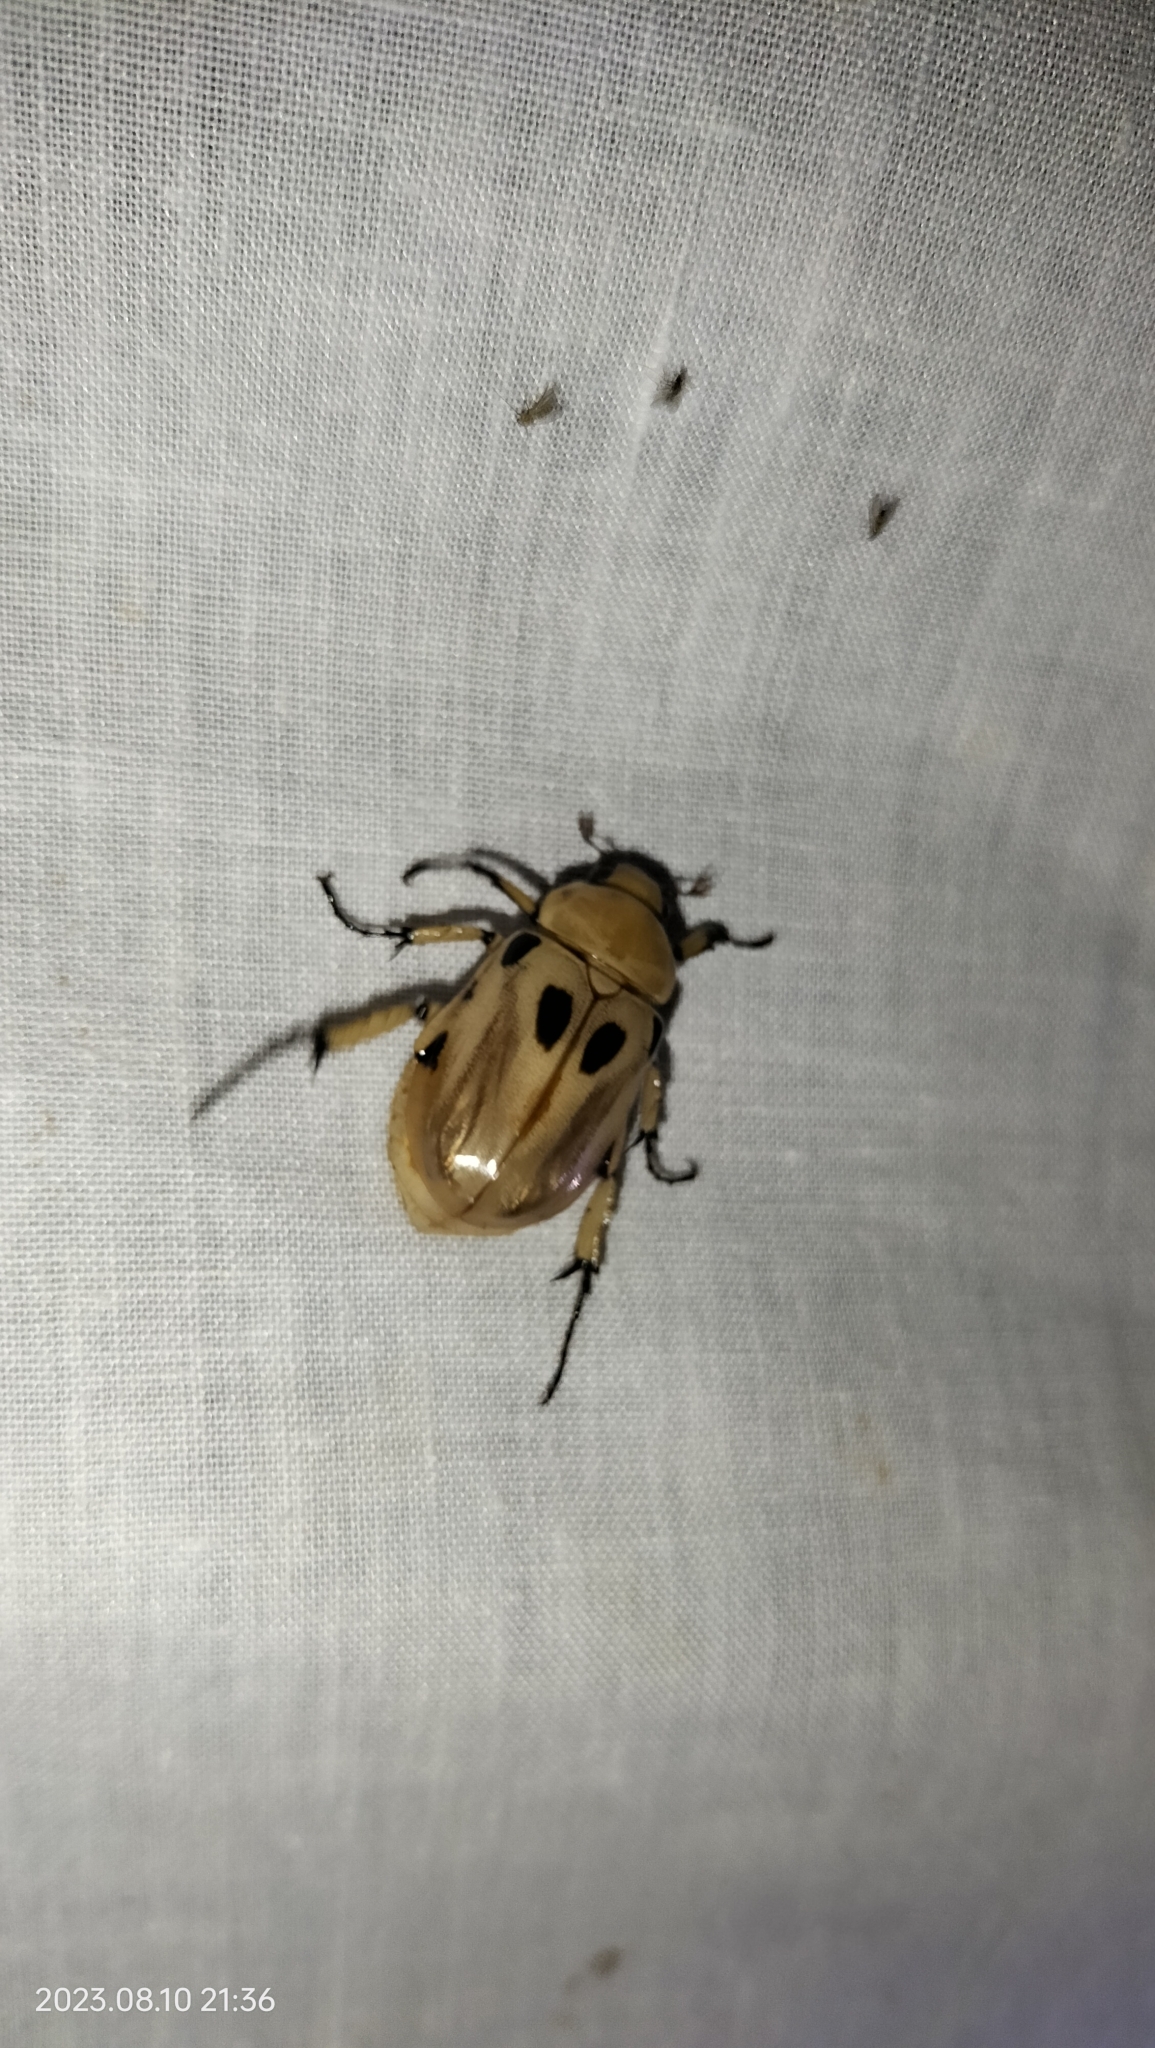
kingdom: Animalia
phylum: Arthropoda
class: Insecta
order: Coleoptera
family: Scarabaeidae
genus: Ancognatha
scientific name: Ancognatha vulgaris
